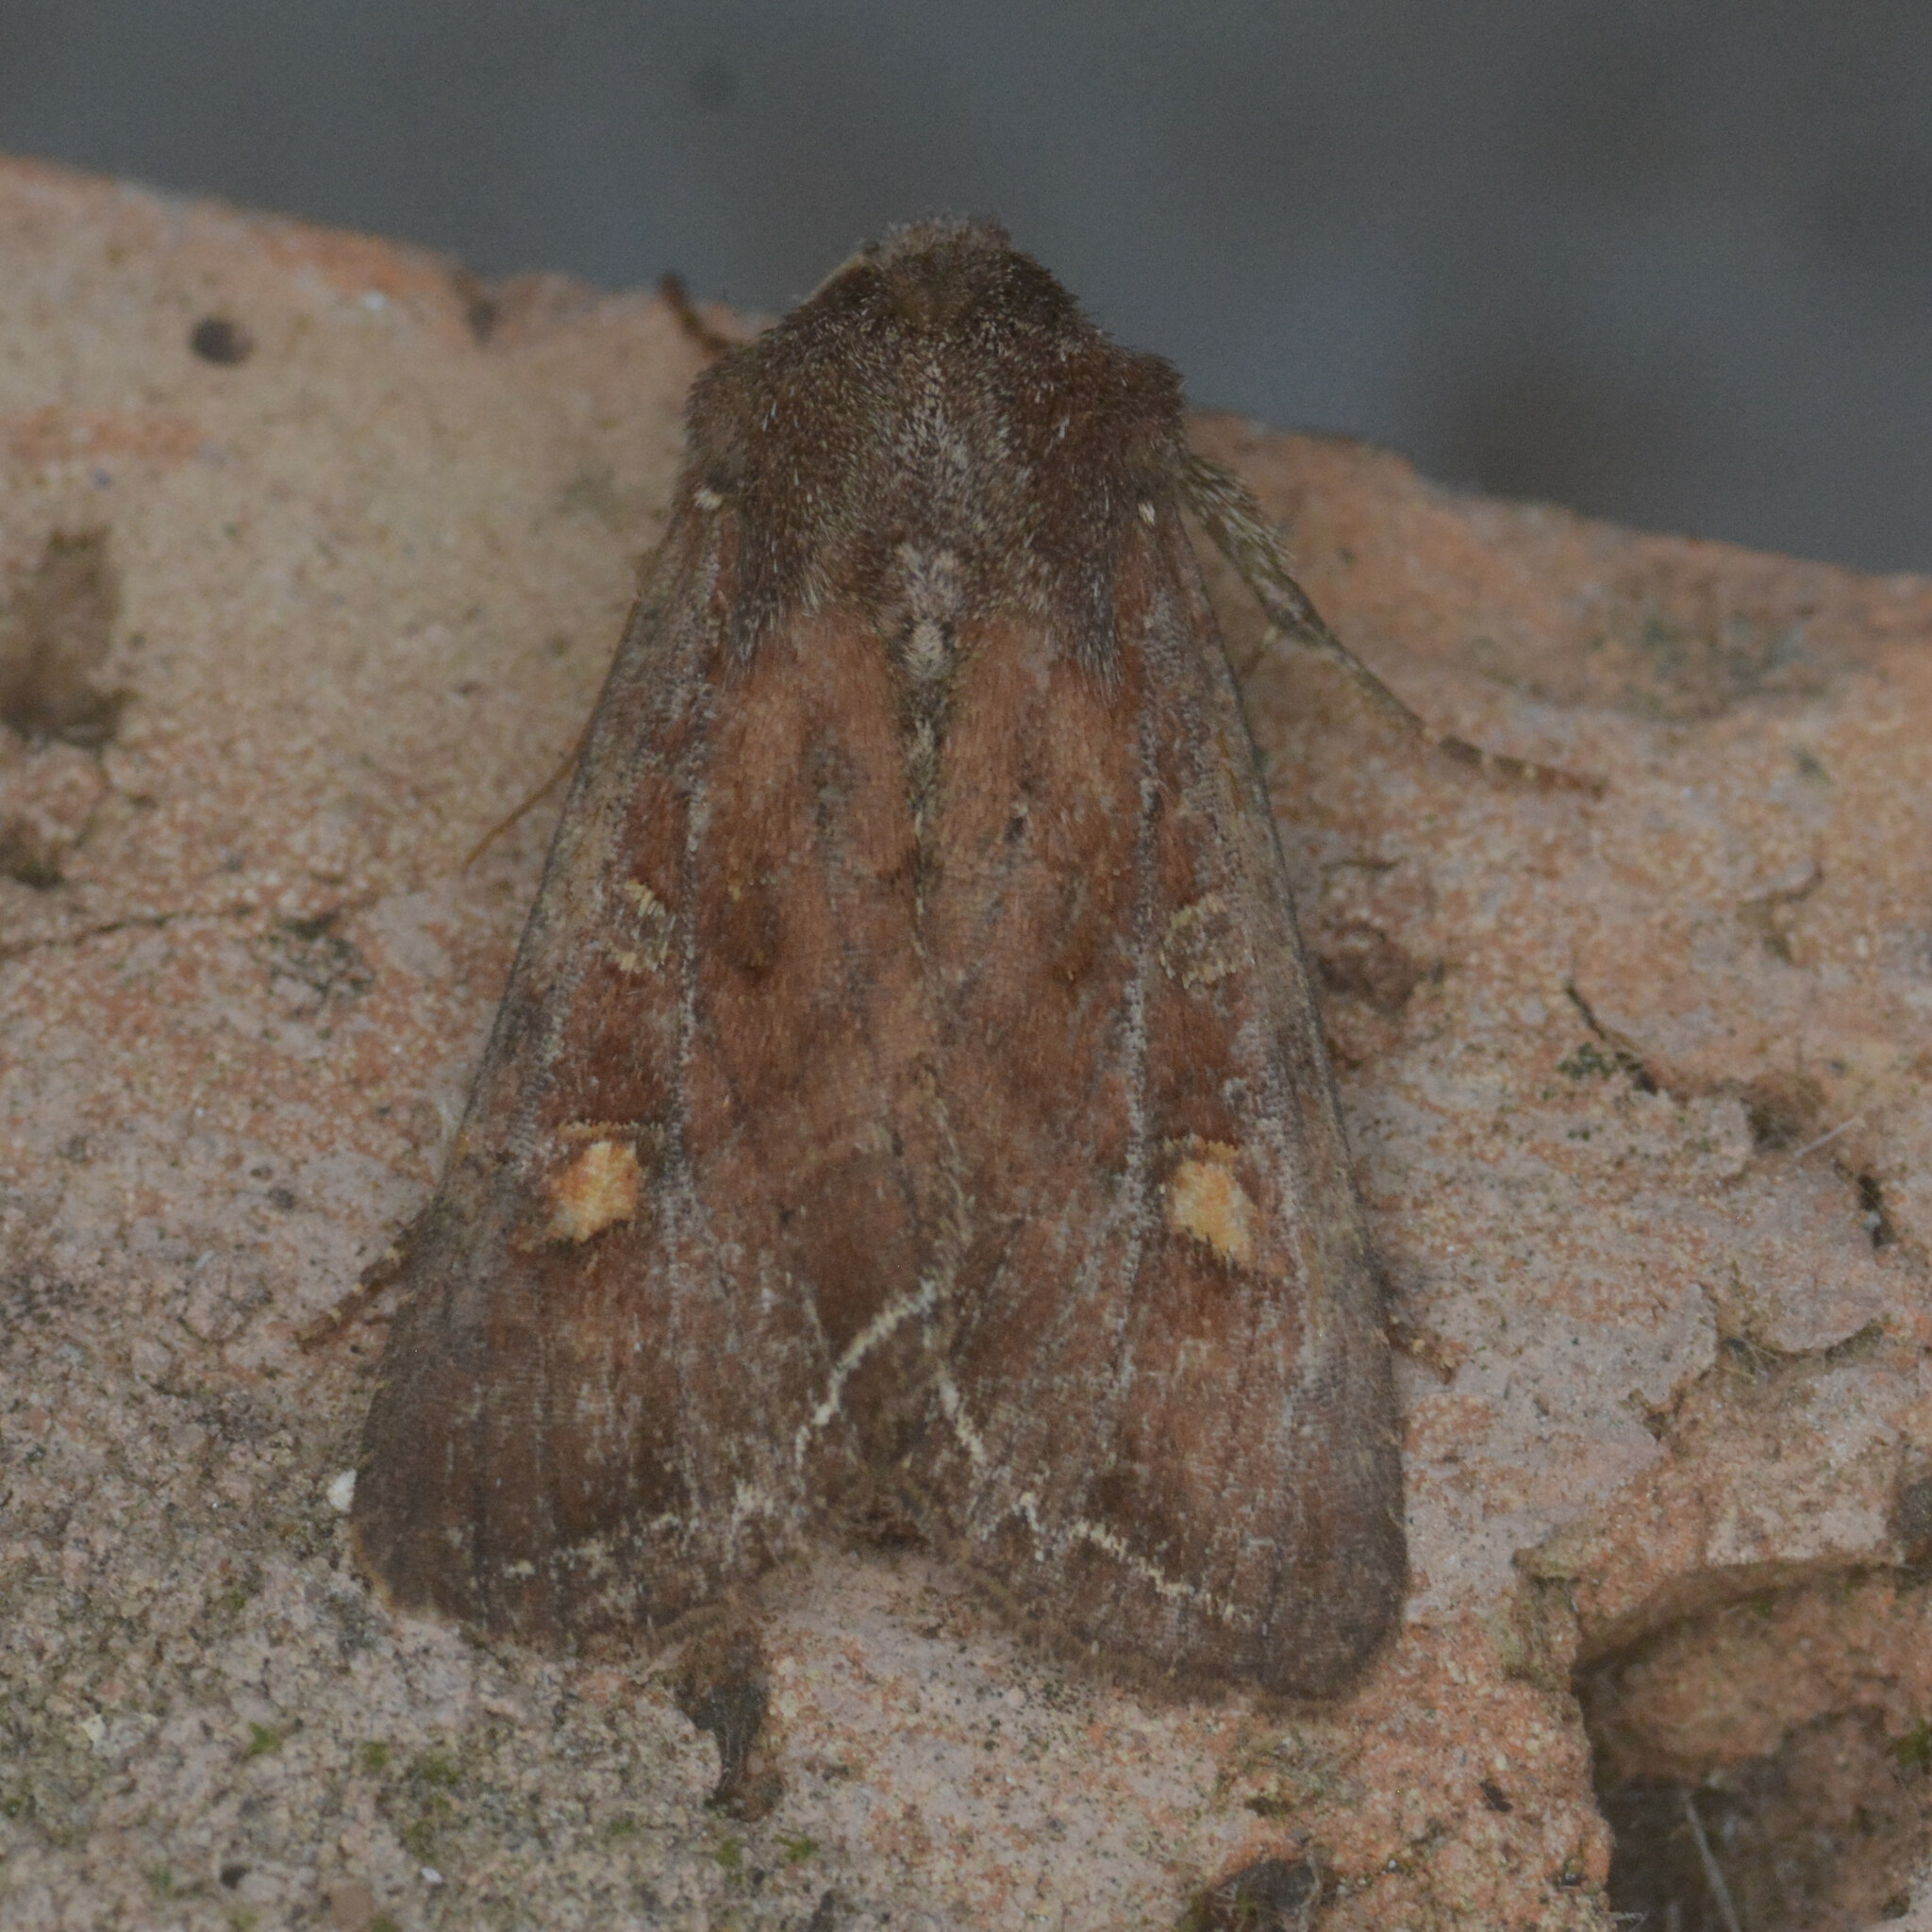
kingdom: Animalia
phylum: Arthropoda
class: Insecta
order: Lepidoptera
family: Noctuidae
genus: Lacanobia
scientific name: Lacanobia oleracea
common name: Bright-line brown-eye
